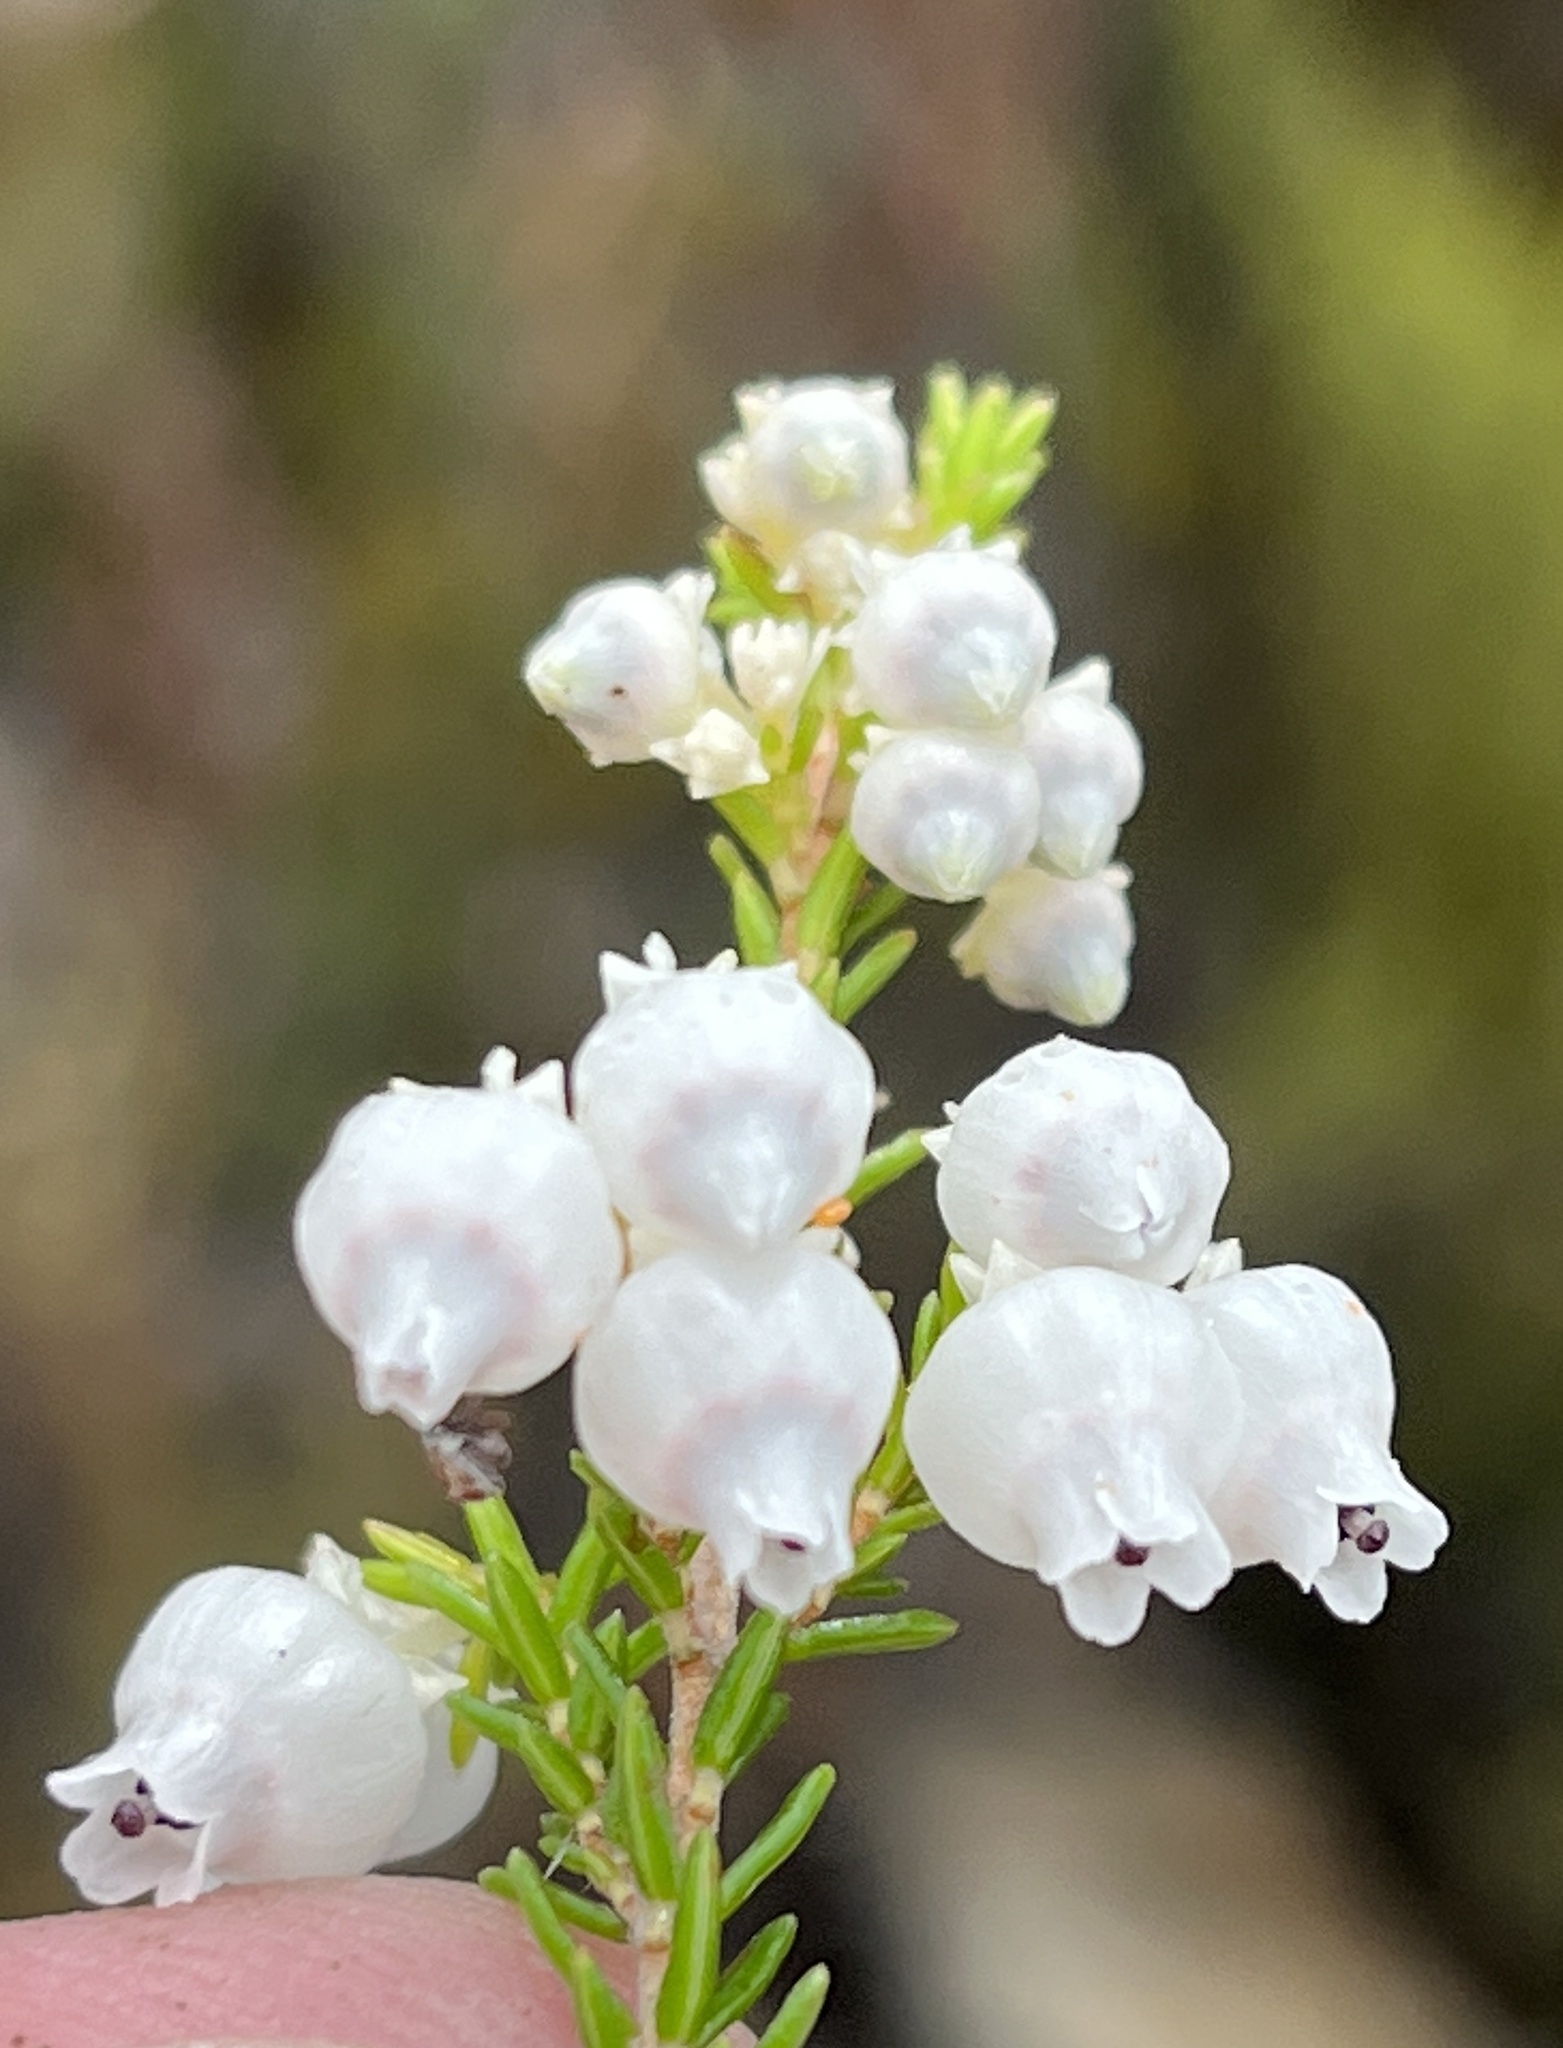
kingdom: Plantae
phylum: Tracheophyta
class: Magnoliopsida
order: Ericales
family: Ericaceae
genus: Erica
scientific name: Erica tragulifera
